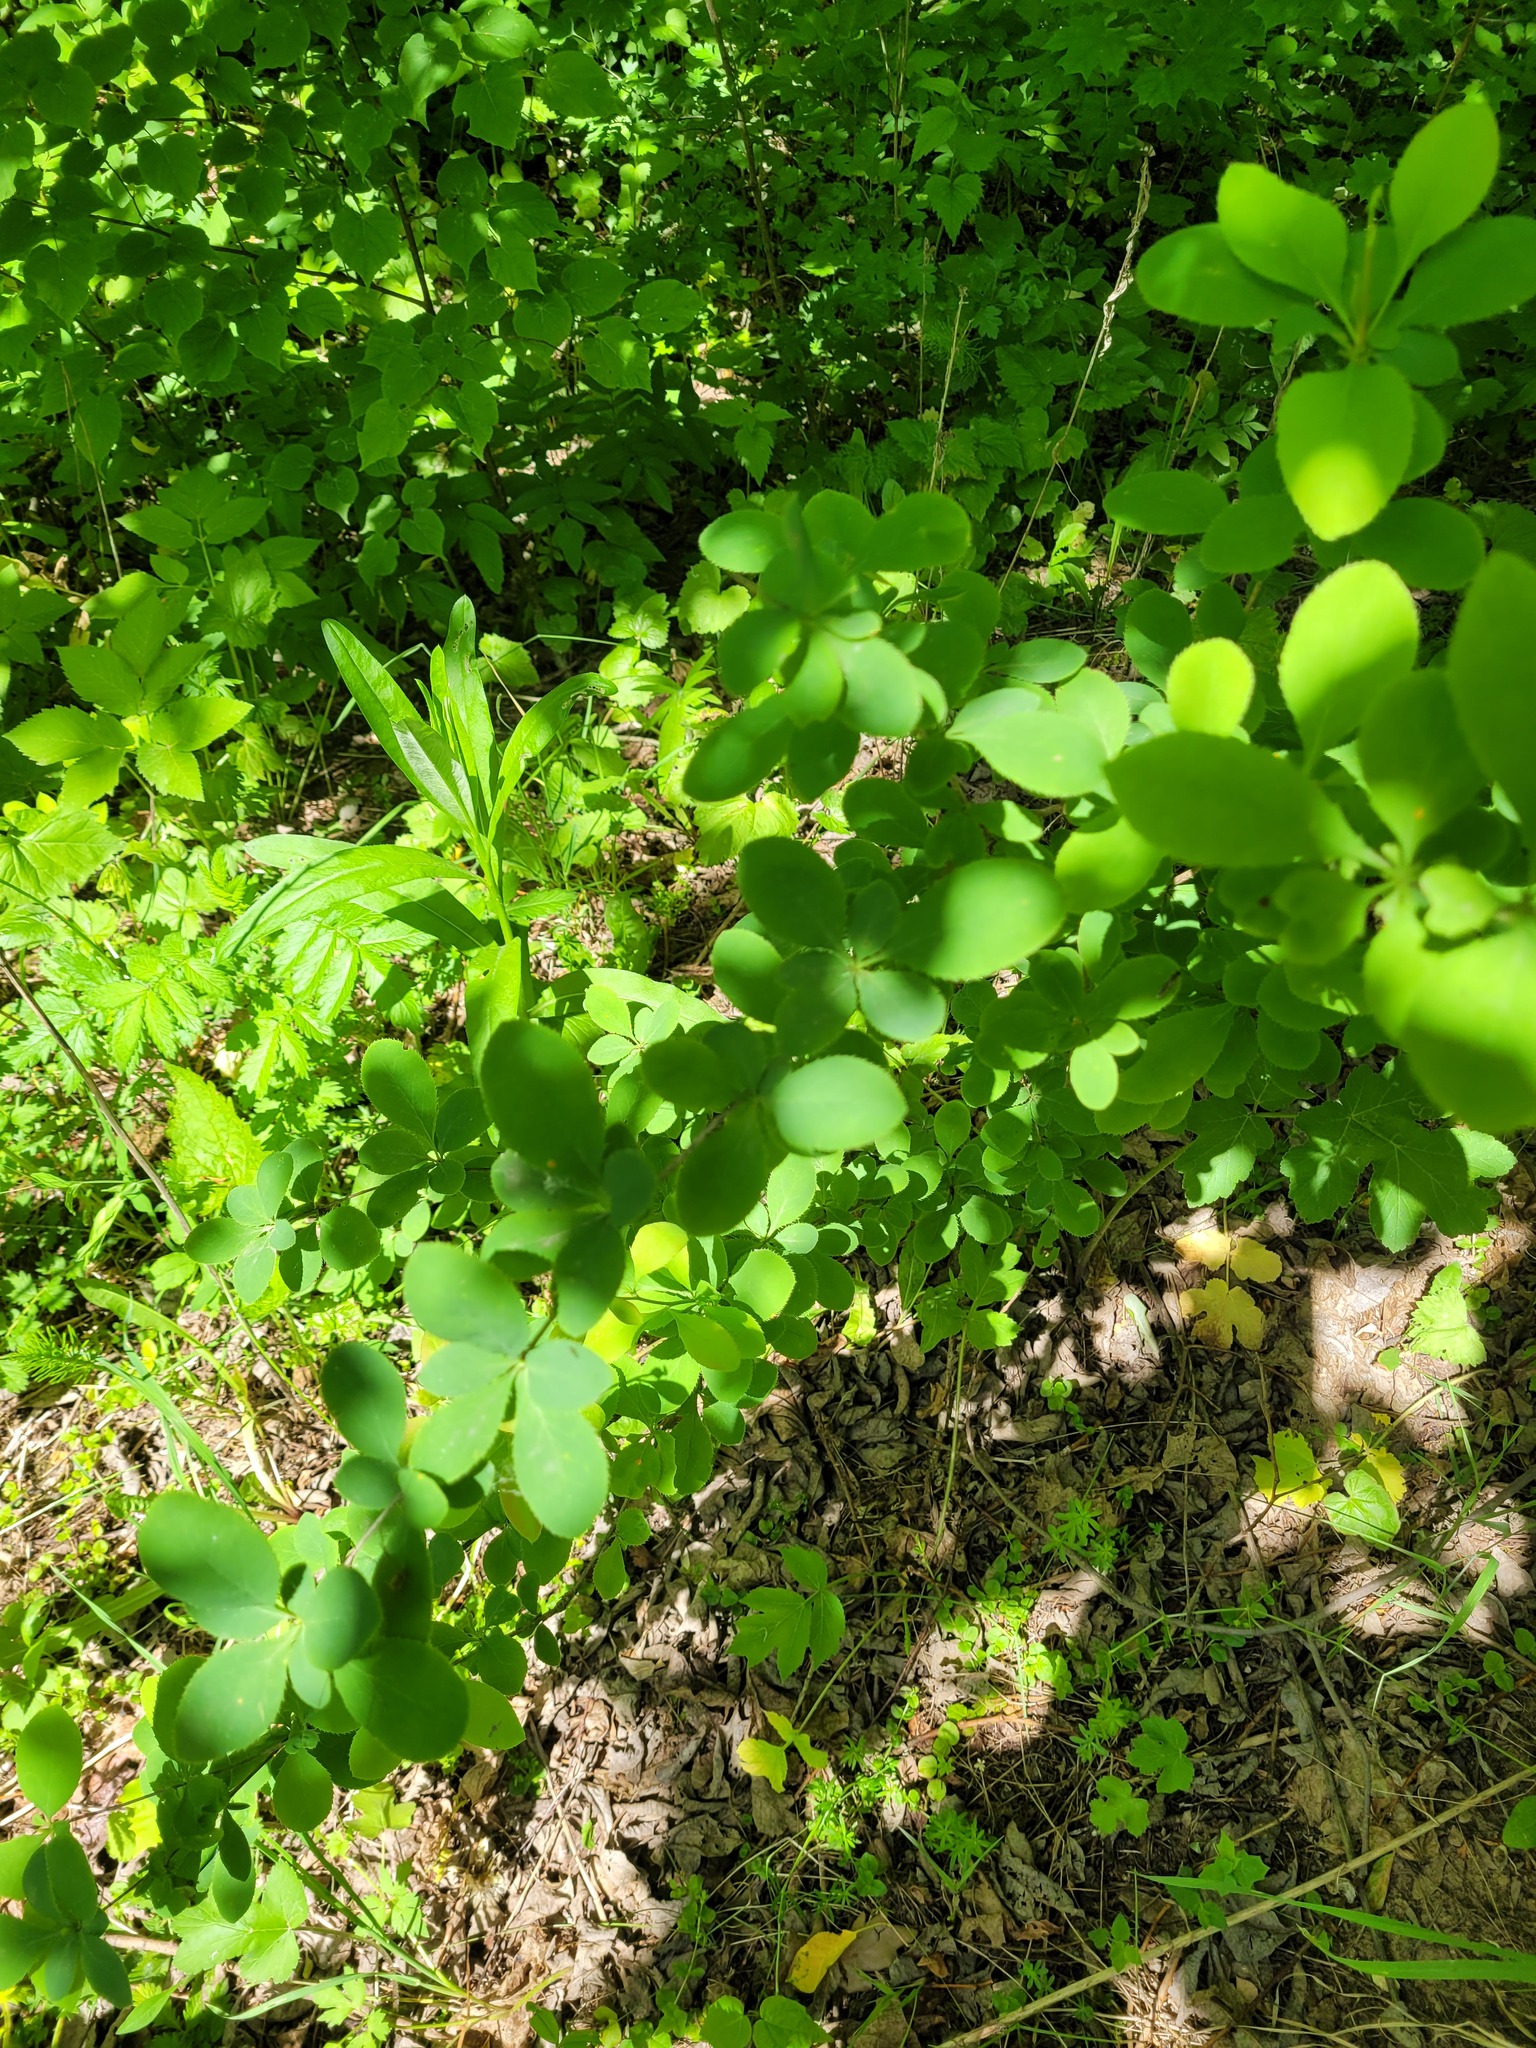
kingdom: Plantae
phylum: Tracheophyta
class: Magnoliopsida
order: Ranunculales
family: Berberidaceae
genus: Berberis
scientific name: Berberis vulgaris
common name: Barberry
